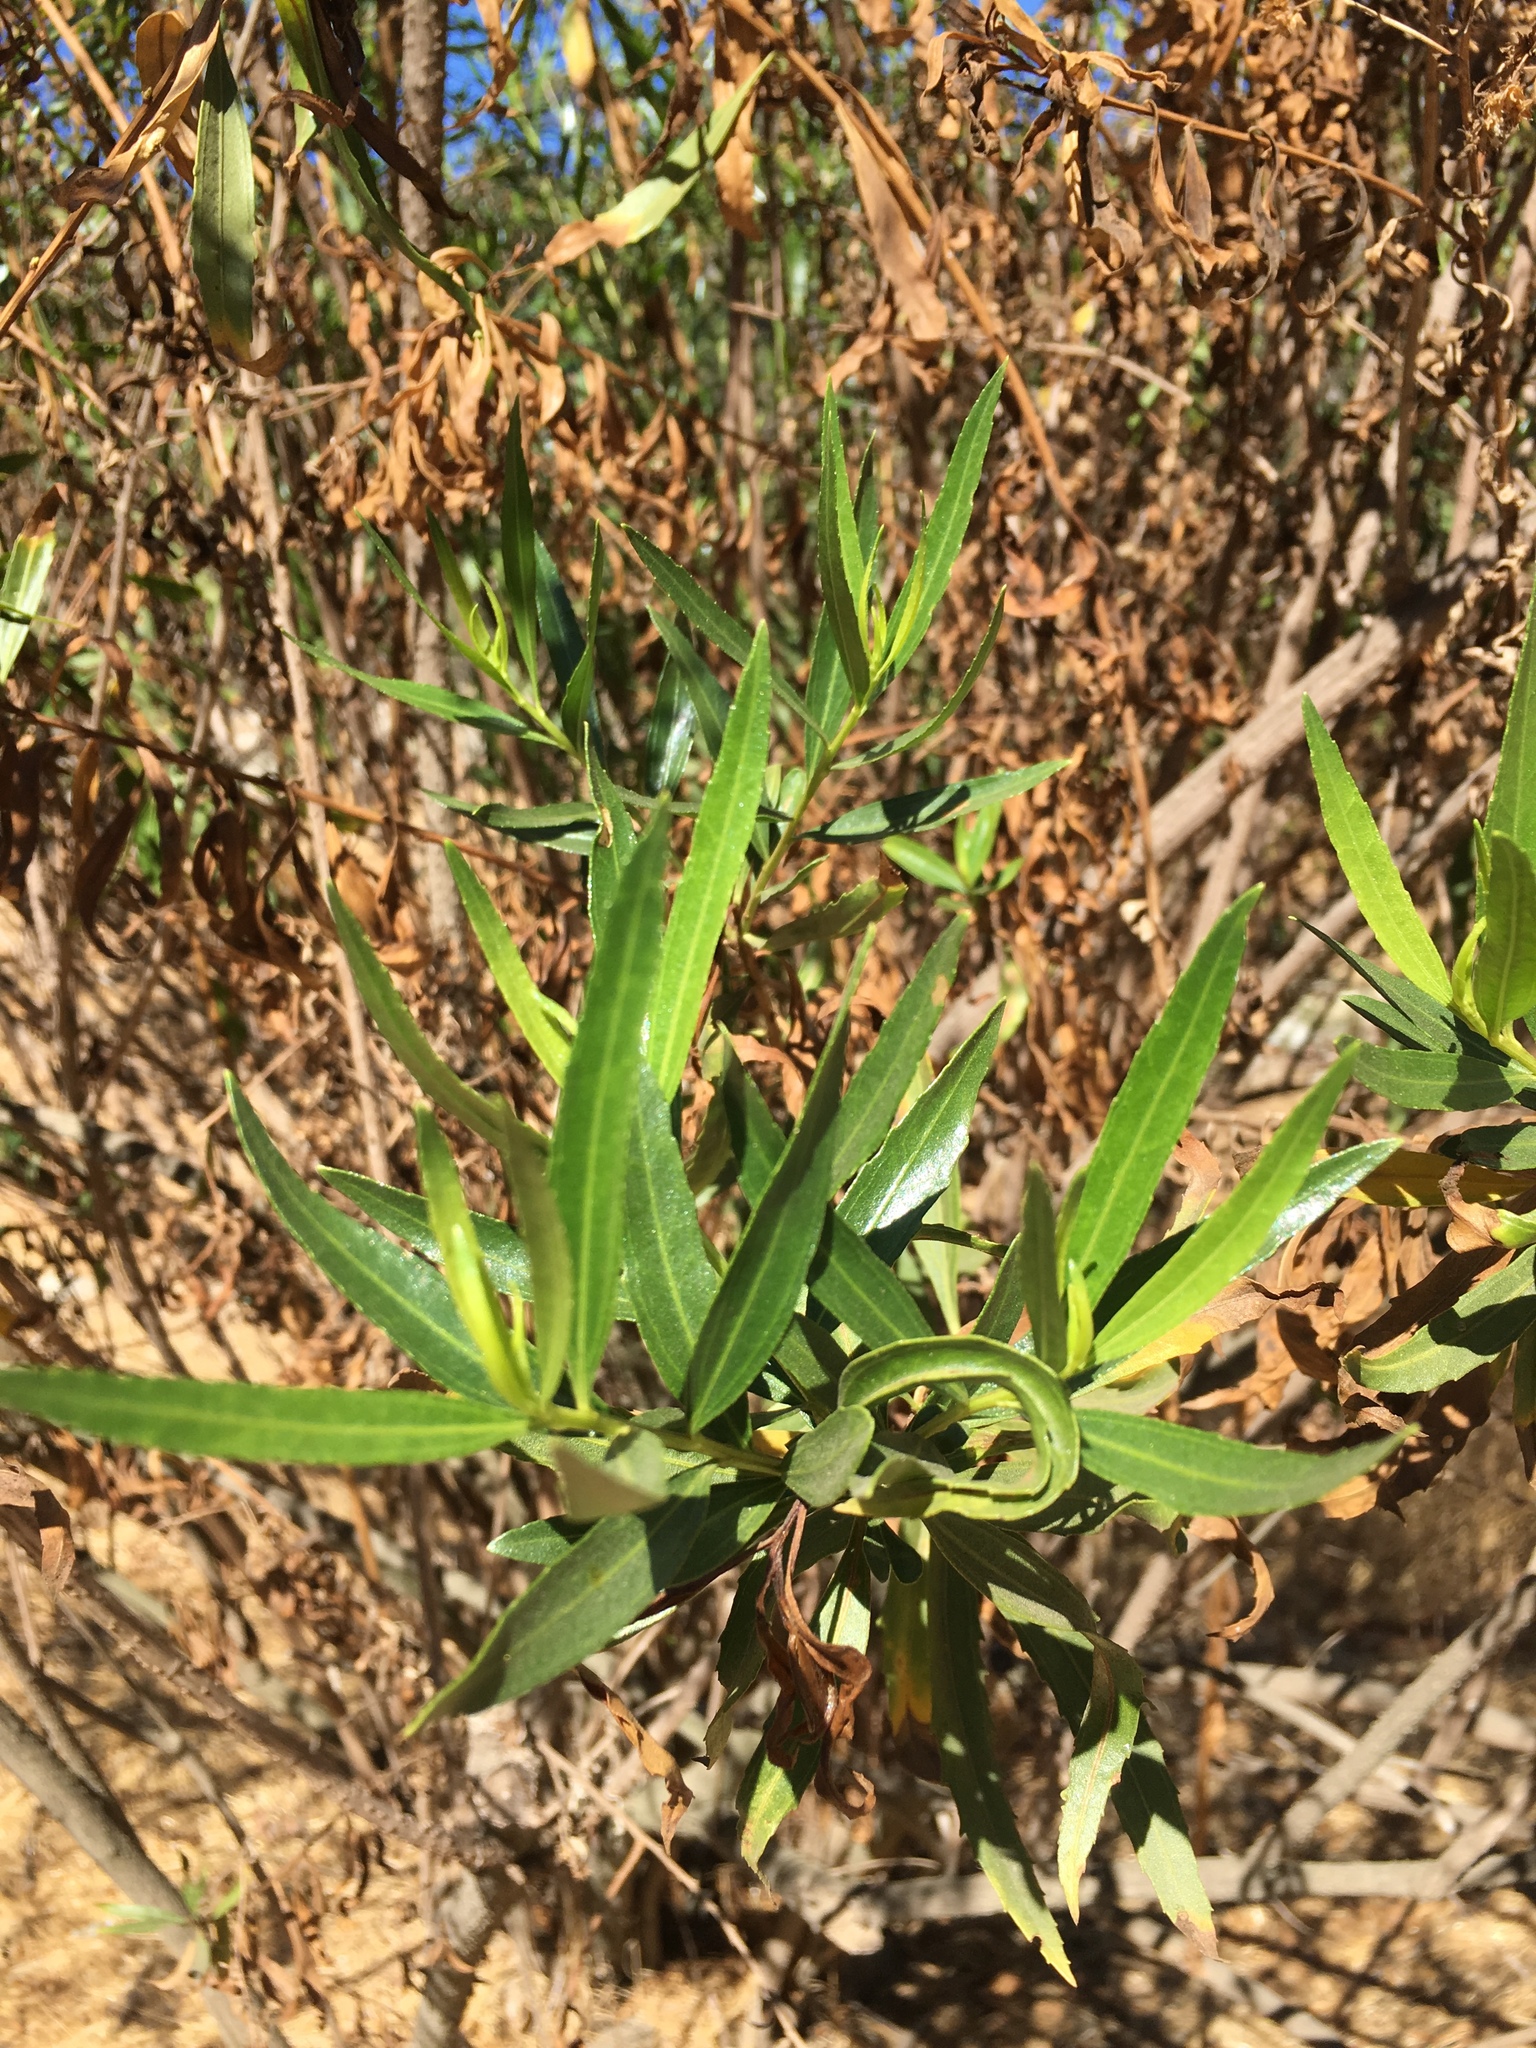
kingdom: Plantae
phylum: Tracheophyta
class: Magnoliopsida
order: Asterales
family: Asteraceae
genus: Baccharis
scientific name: Baccharis salicifolia
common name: Sticky baccharis
